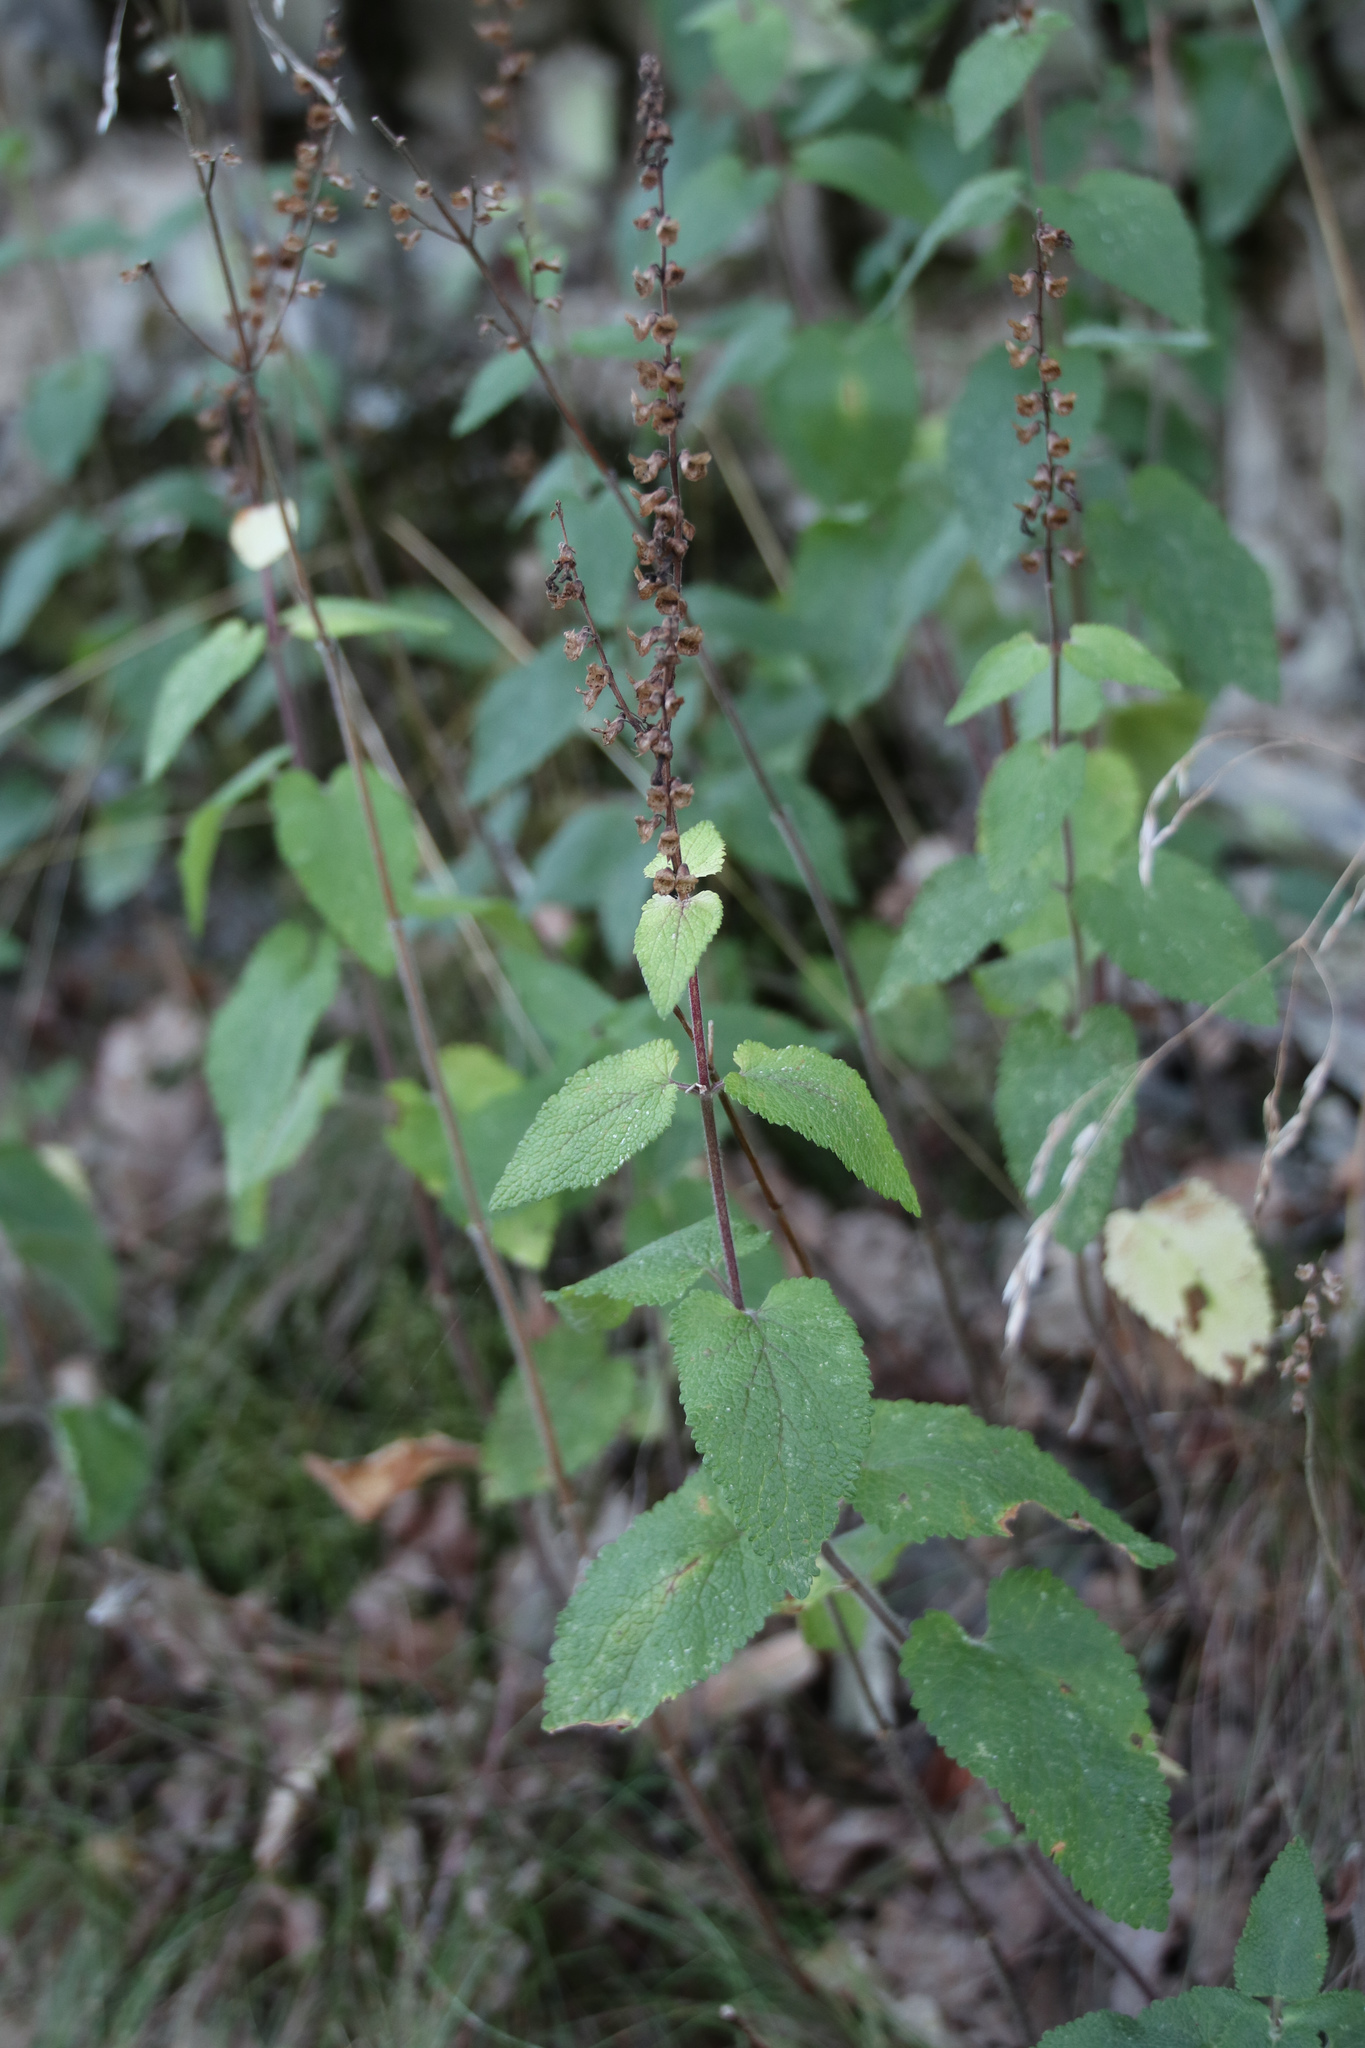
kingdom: Plantae
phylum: Tracheophyta
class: Magnoliopsida
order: Lamiales
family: Lamiaceae
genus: Teucrium
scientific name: Teucrium scorodonia
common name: Woodland germander
